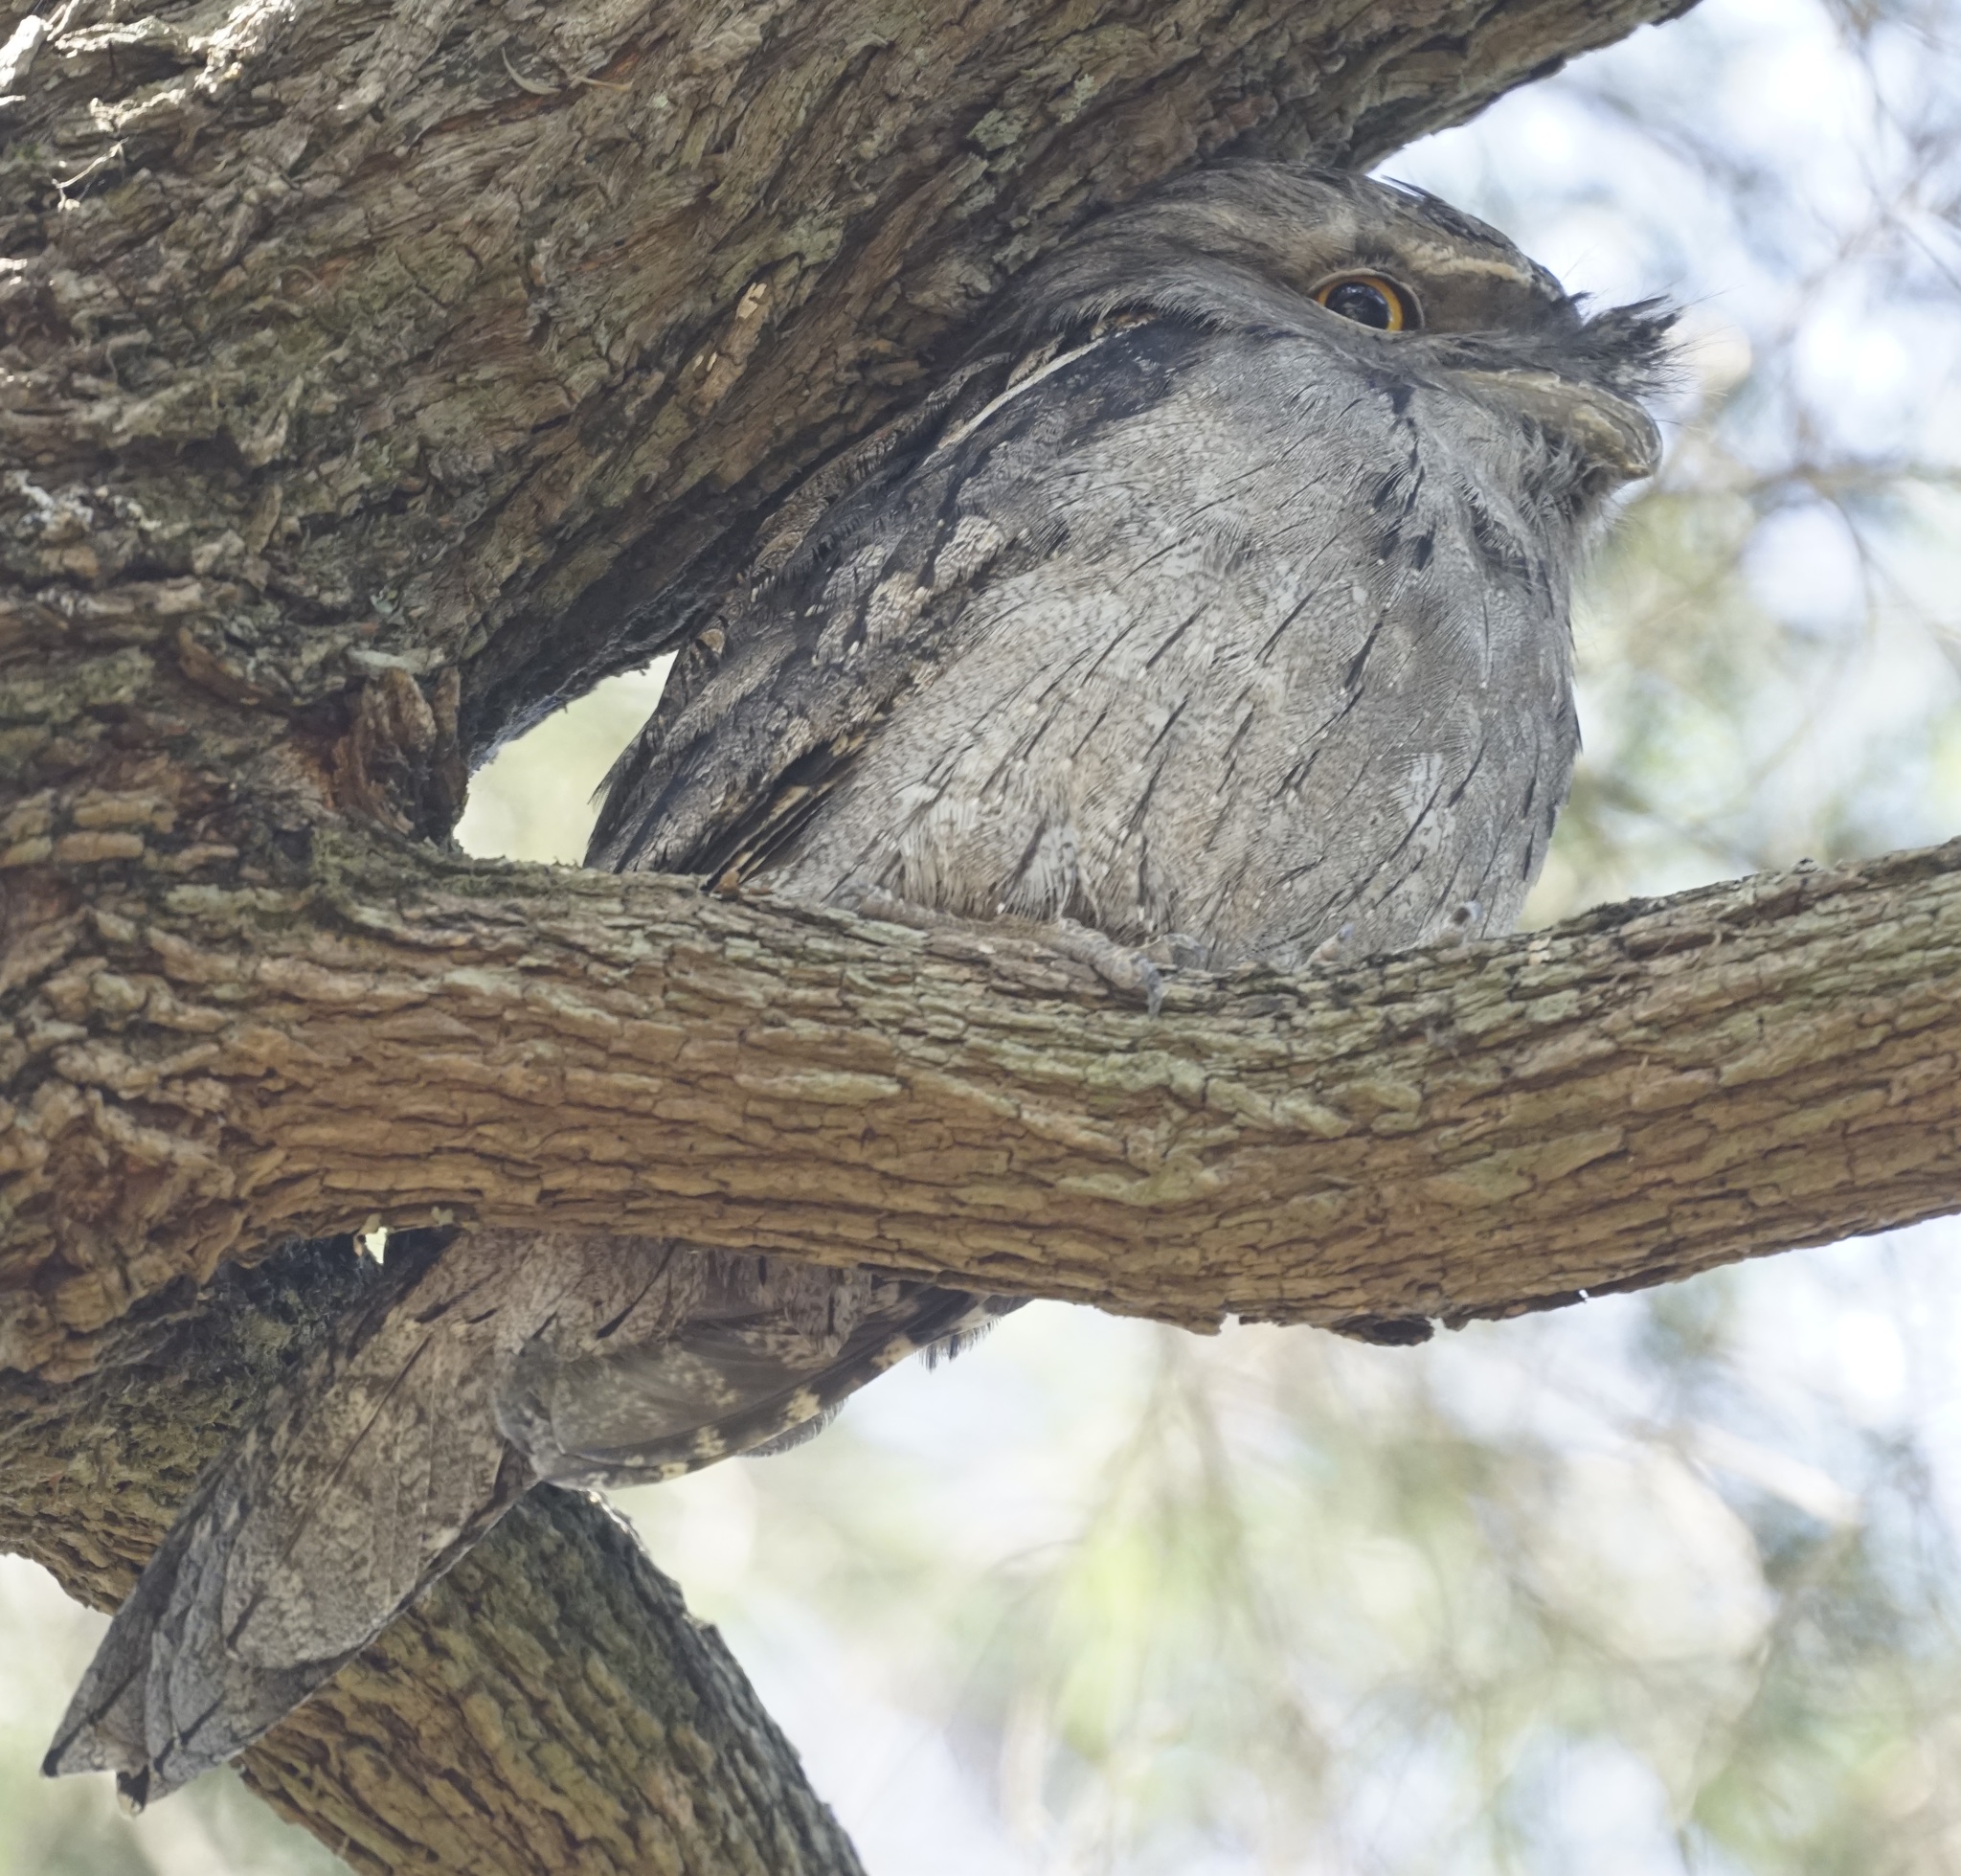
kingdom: Animalia
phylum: Chordata
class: Aves
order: Caprimulgiformes
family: Podargidae
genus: Podargus
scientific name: Podargus strigoides
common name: Tawny frogmouth
